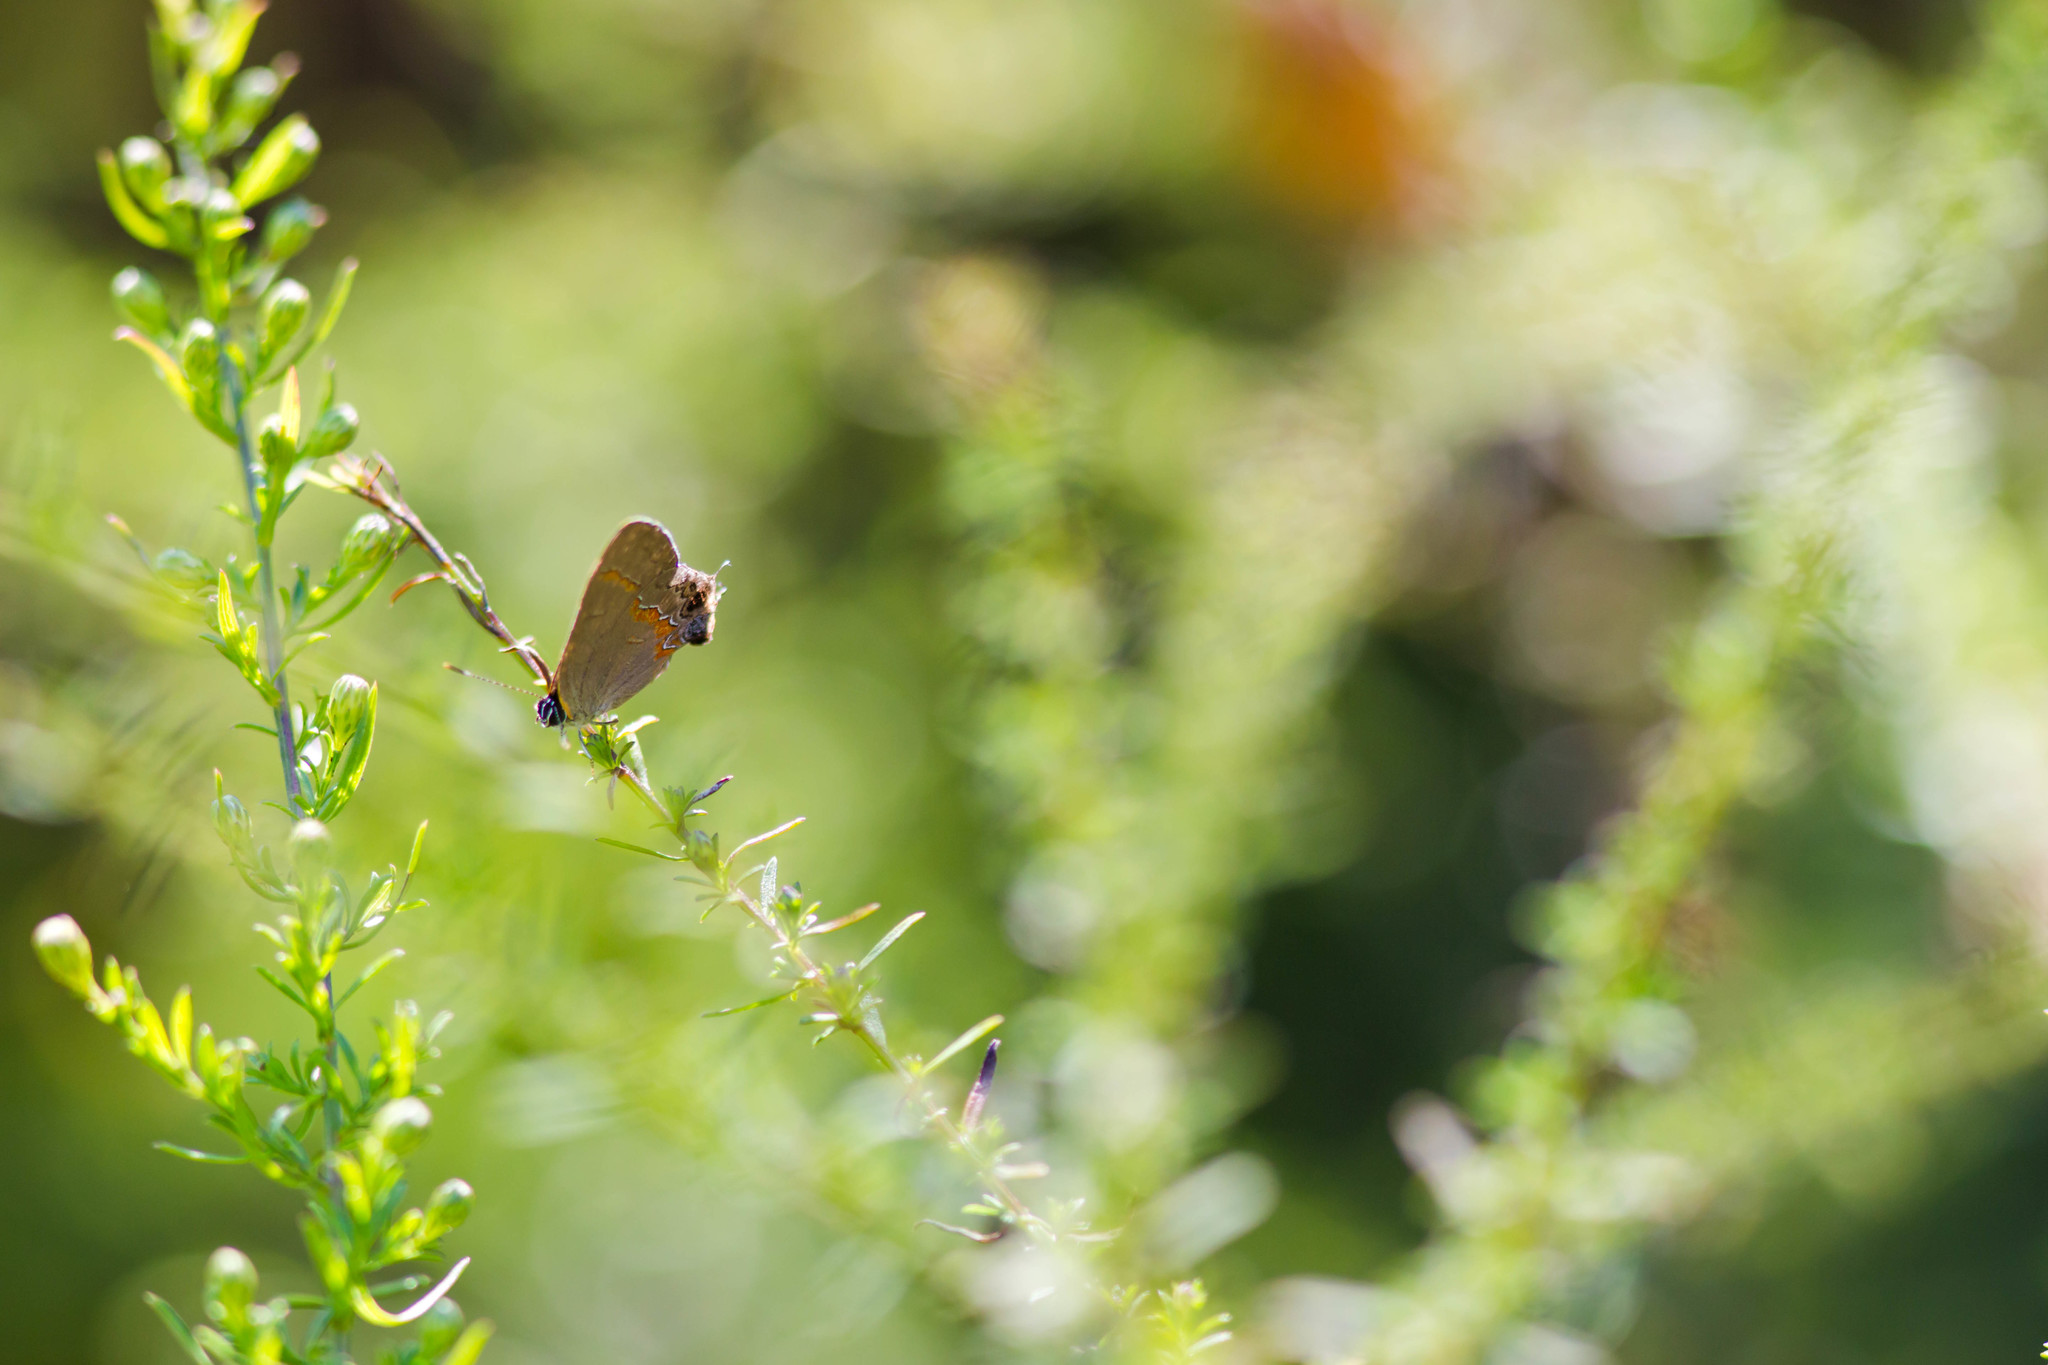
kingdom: Animalia
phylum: Arthropoda
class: Insecta
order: Lepidoptera
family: Lycaenidae
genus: Calycopis
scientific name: Calycopis cecrops
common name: Red-banded hairstreak
